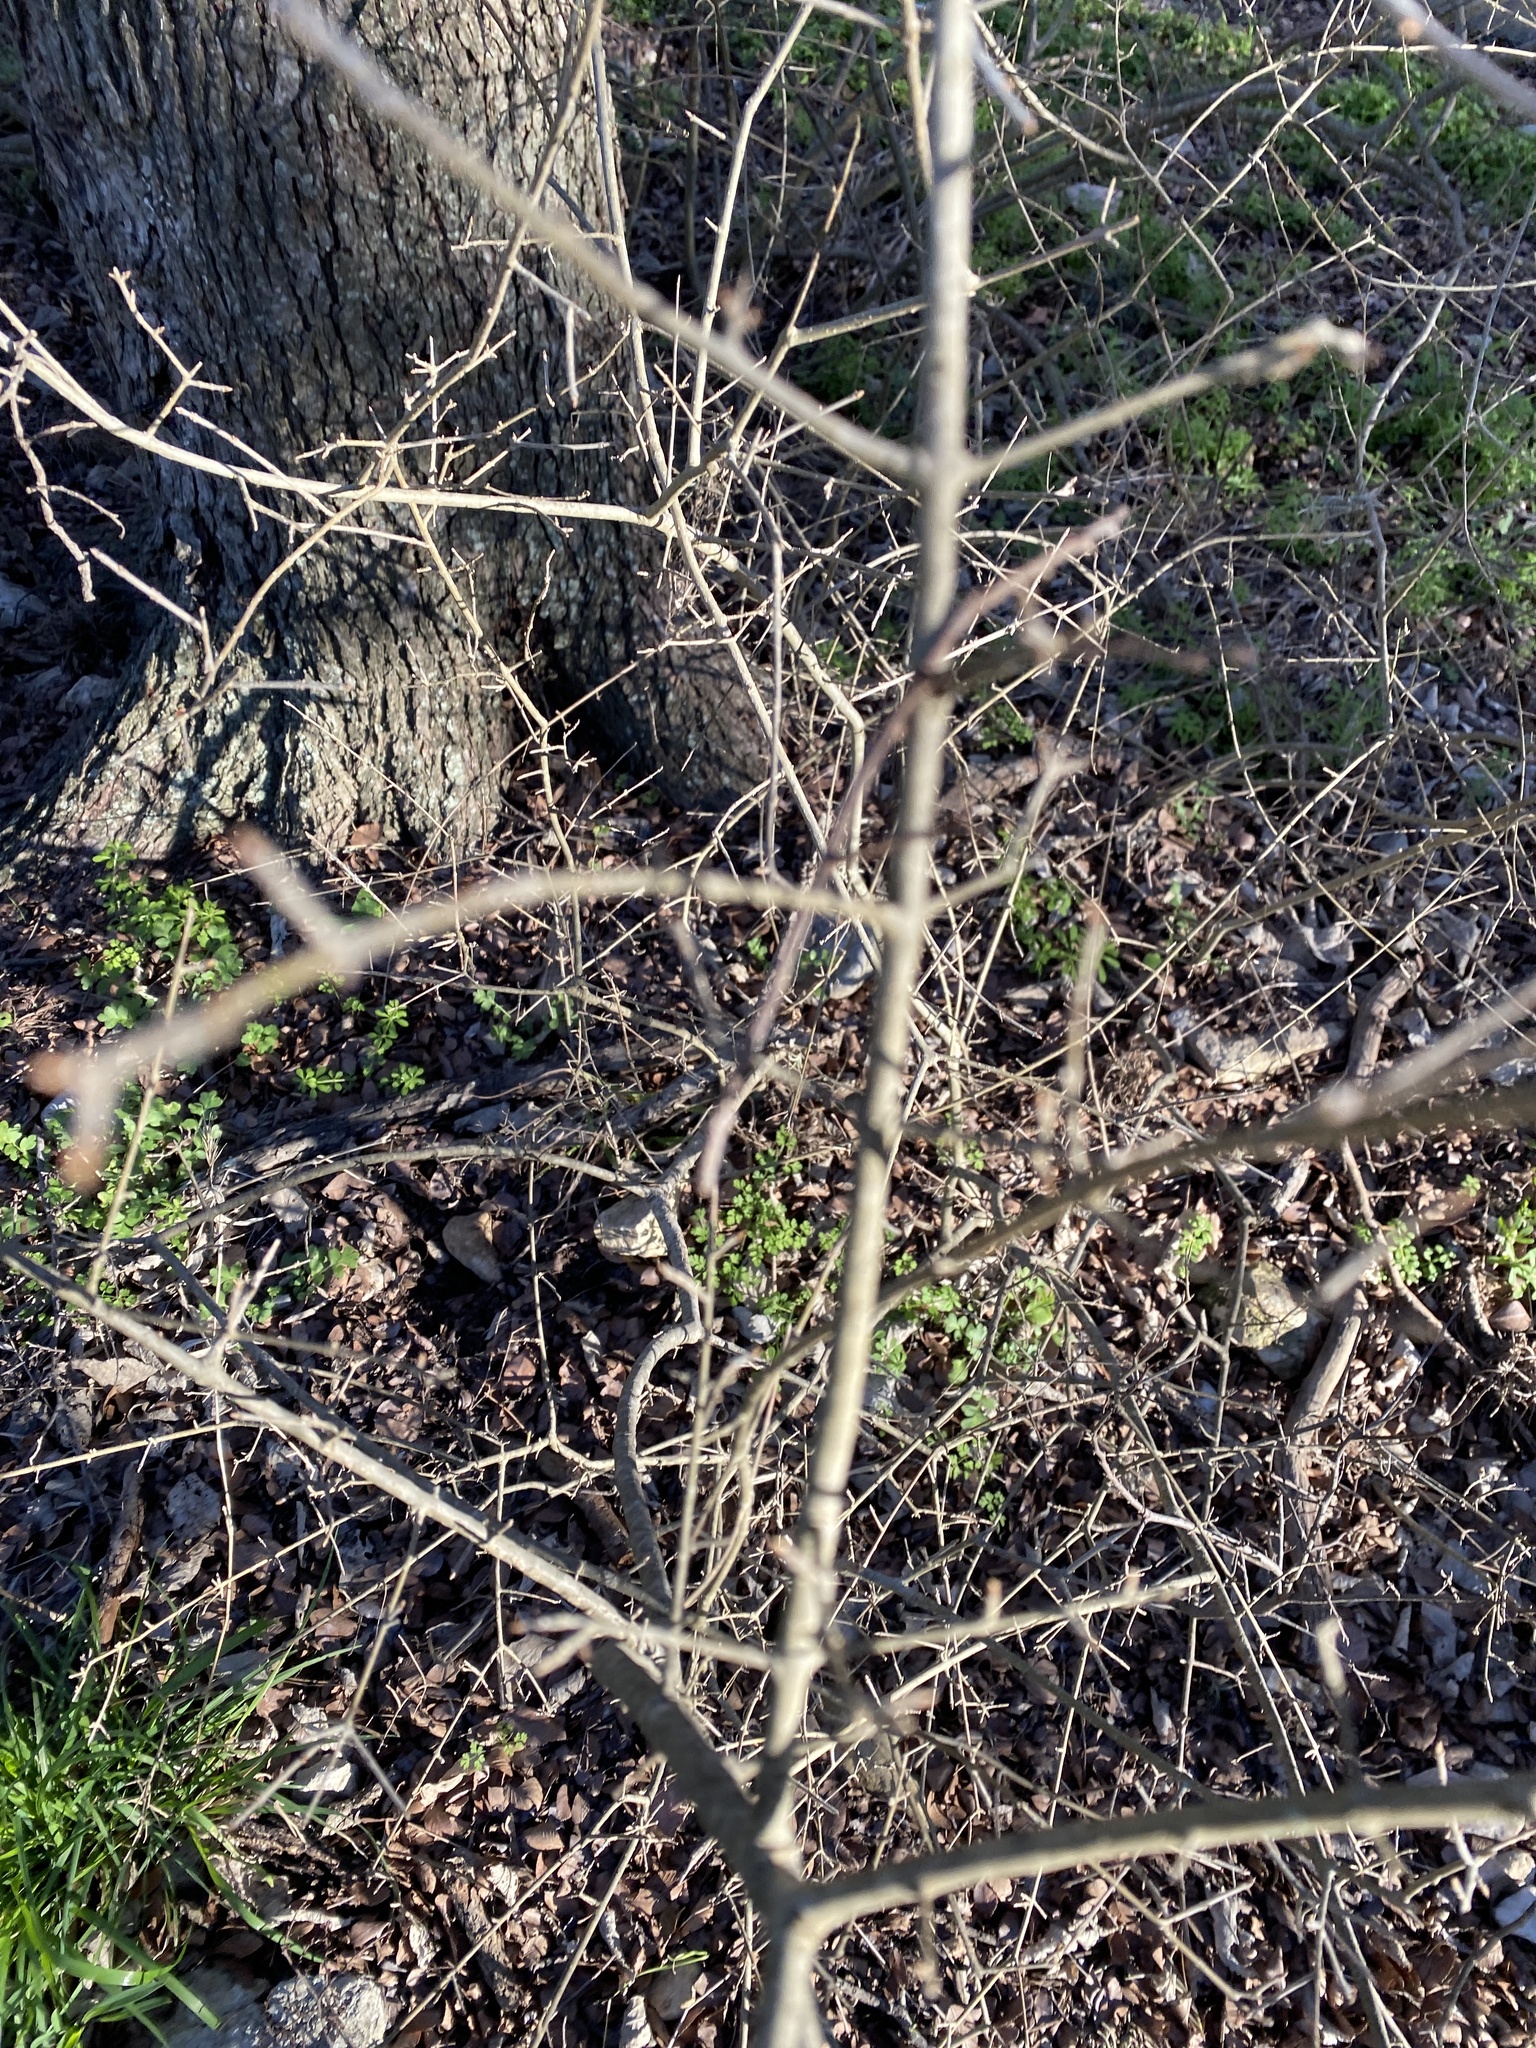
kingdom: Plantae
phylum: Tracheophyta
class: Magnoliopsida
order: Lamiales
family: Oleaceae
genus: Forestiera
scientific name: Forestiera pubescens
